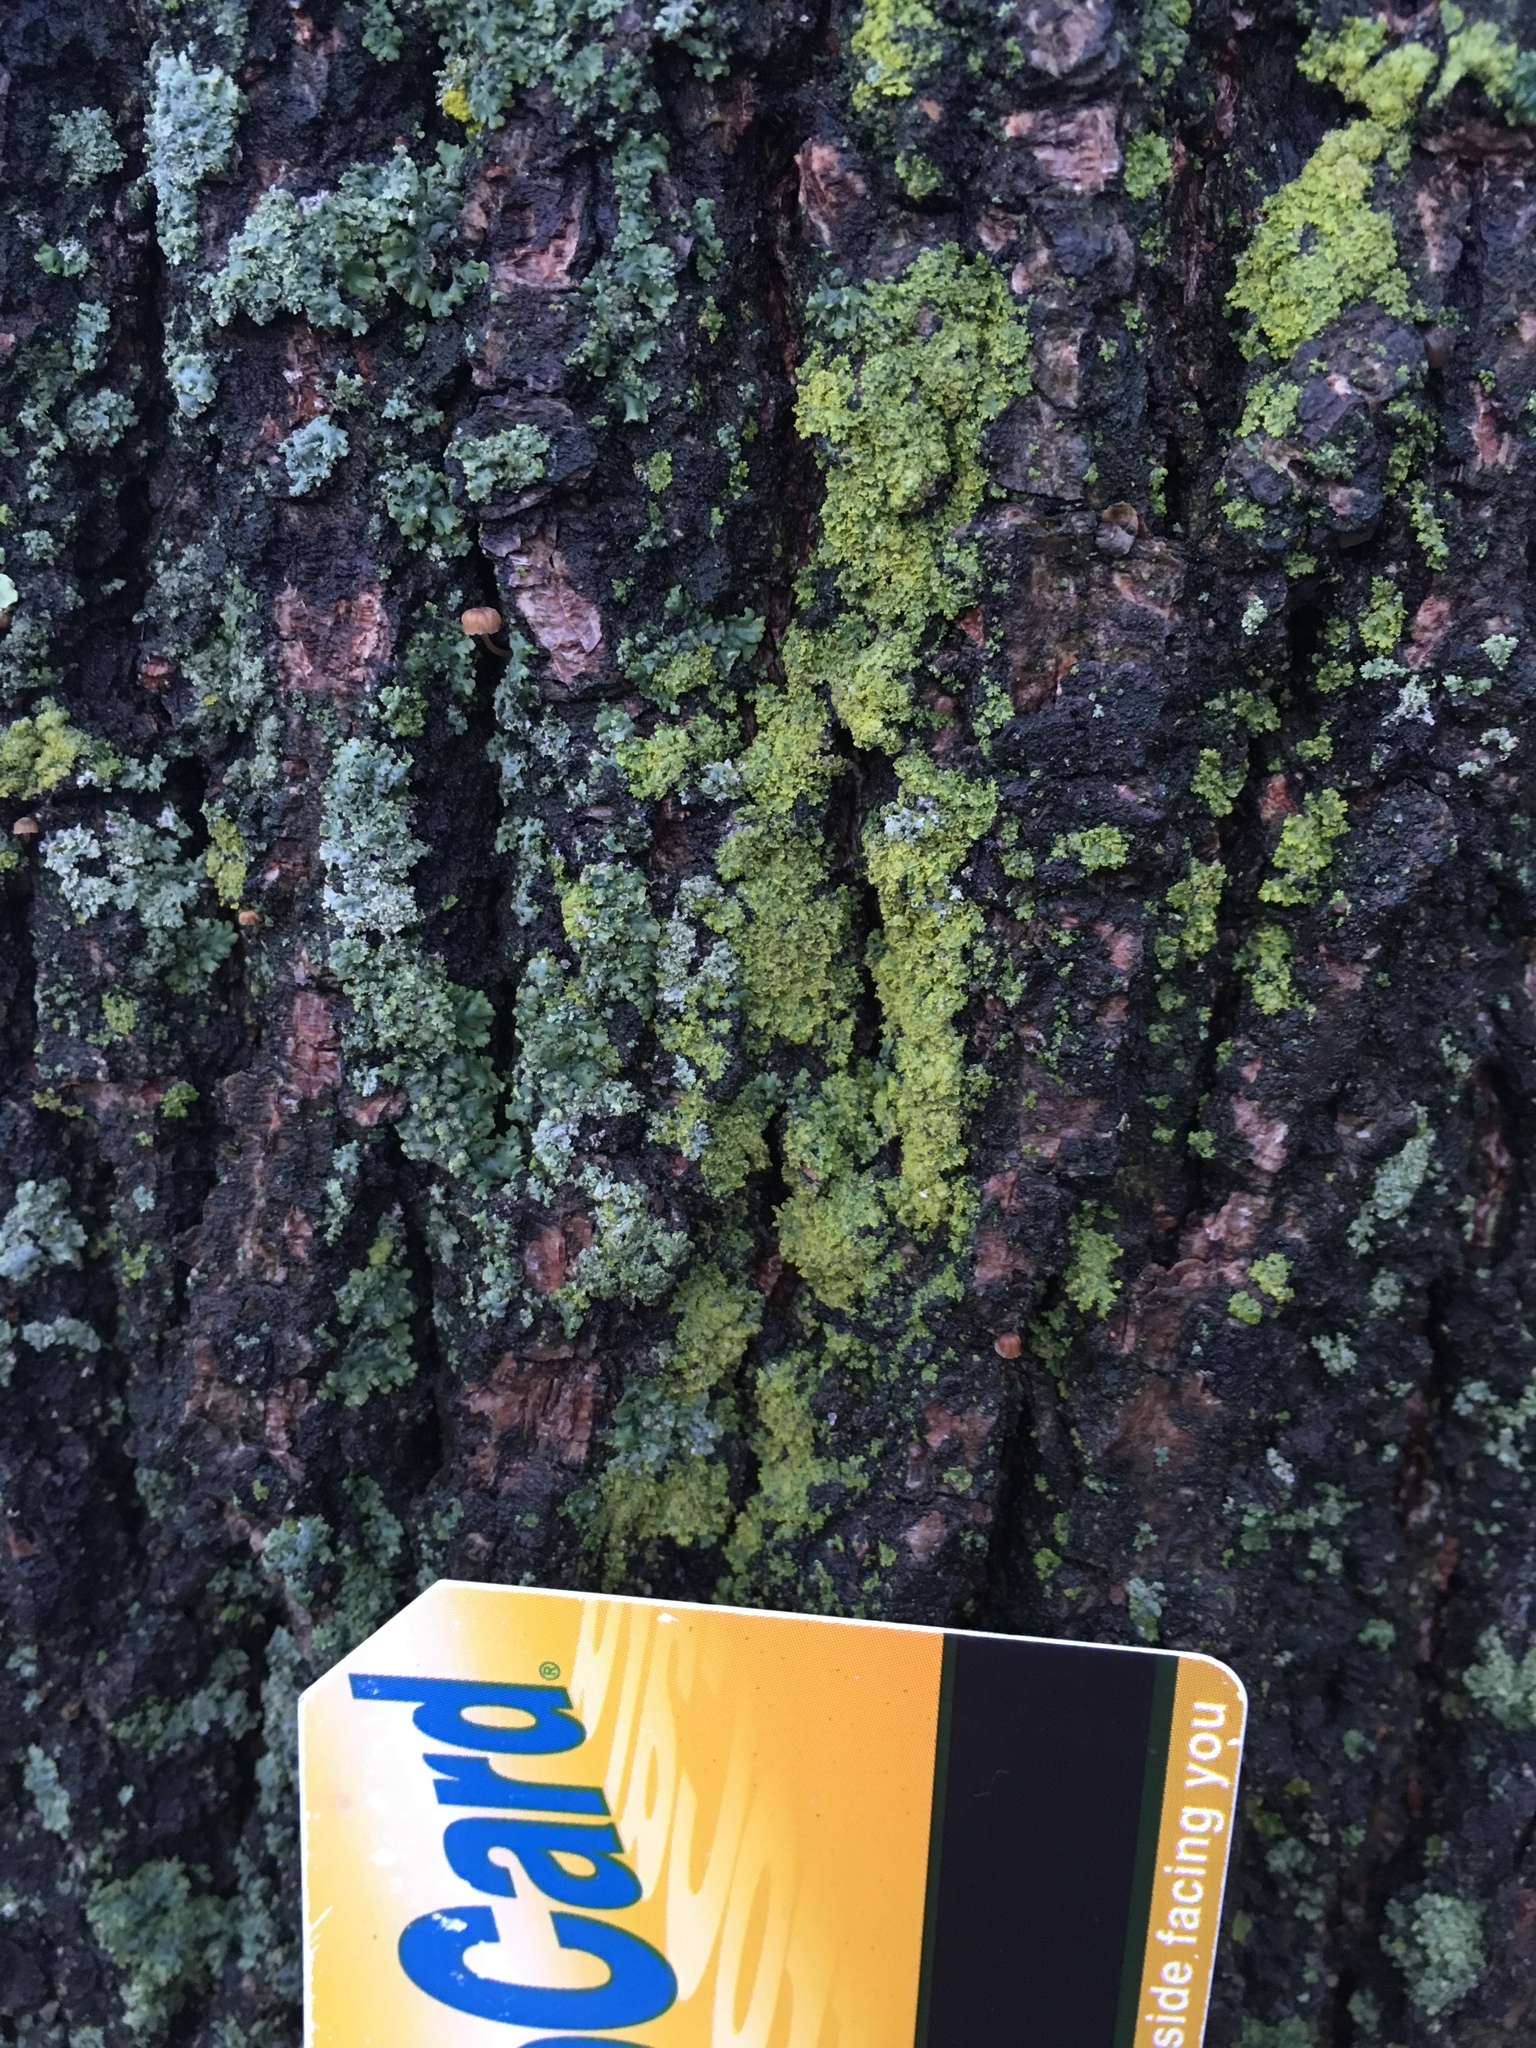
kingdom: Fungi
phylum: Ascomycota
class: Candelariomycetes
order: Candelariales
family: Candelariaceae
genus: Candelaria
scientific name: Candelaria concolor
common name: Candleflame lichen
